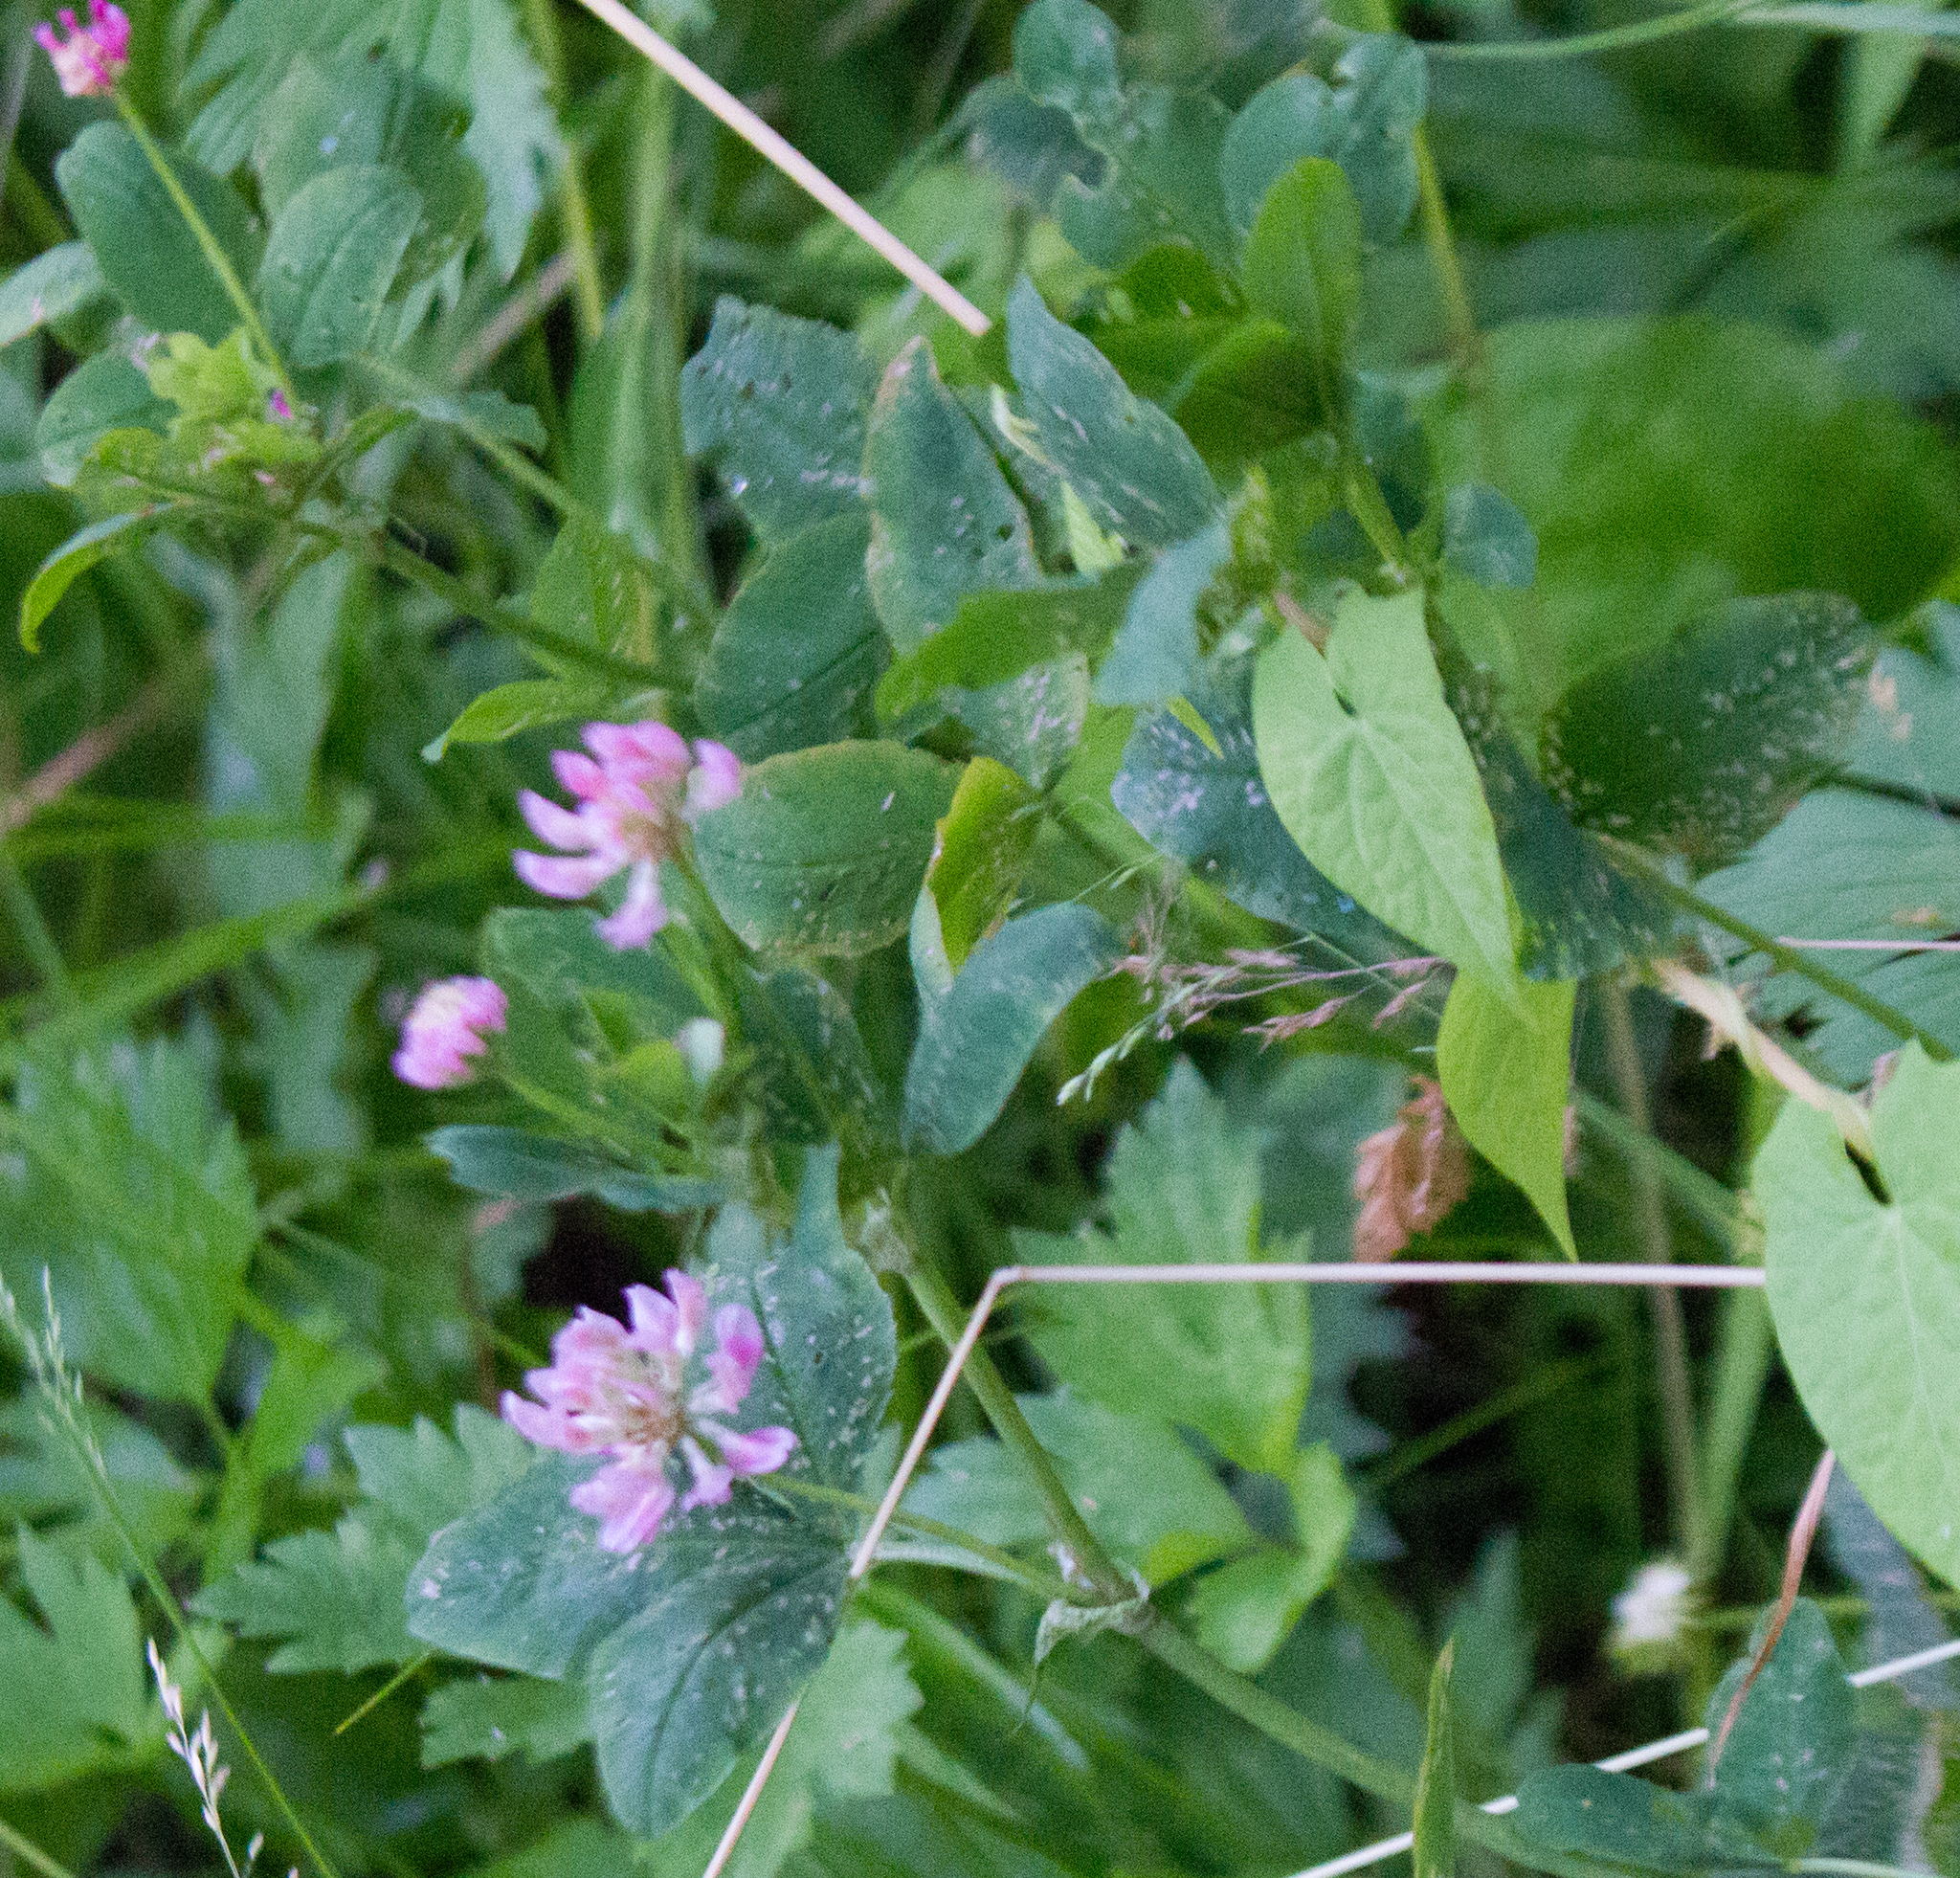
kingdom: Plantae
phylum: Tracheophyta
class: Magnoliopsida
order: Fabales
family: Fabaceae
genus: Trifolium
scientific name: Trifolium hybridum
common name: Alsike clover
